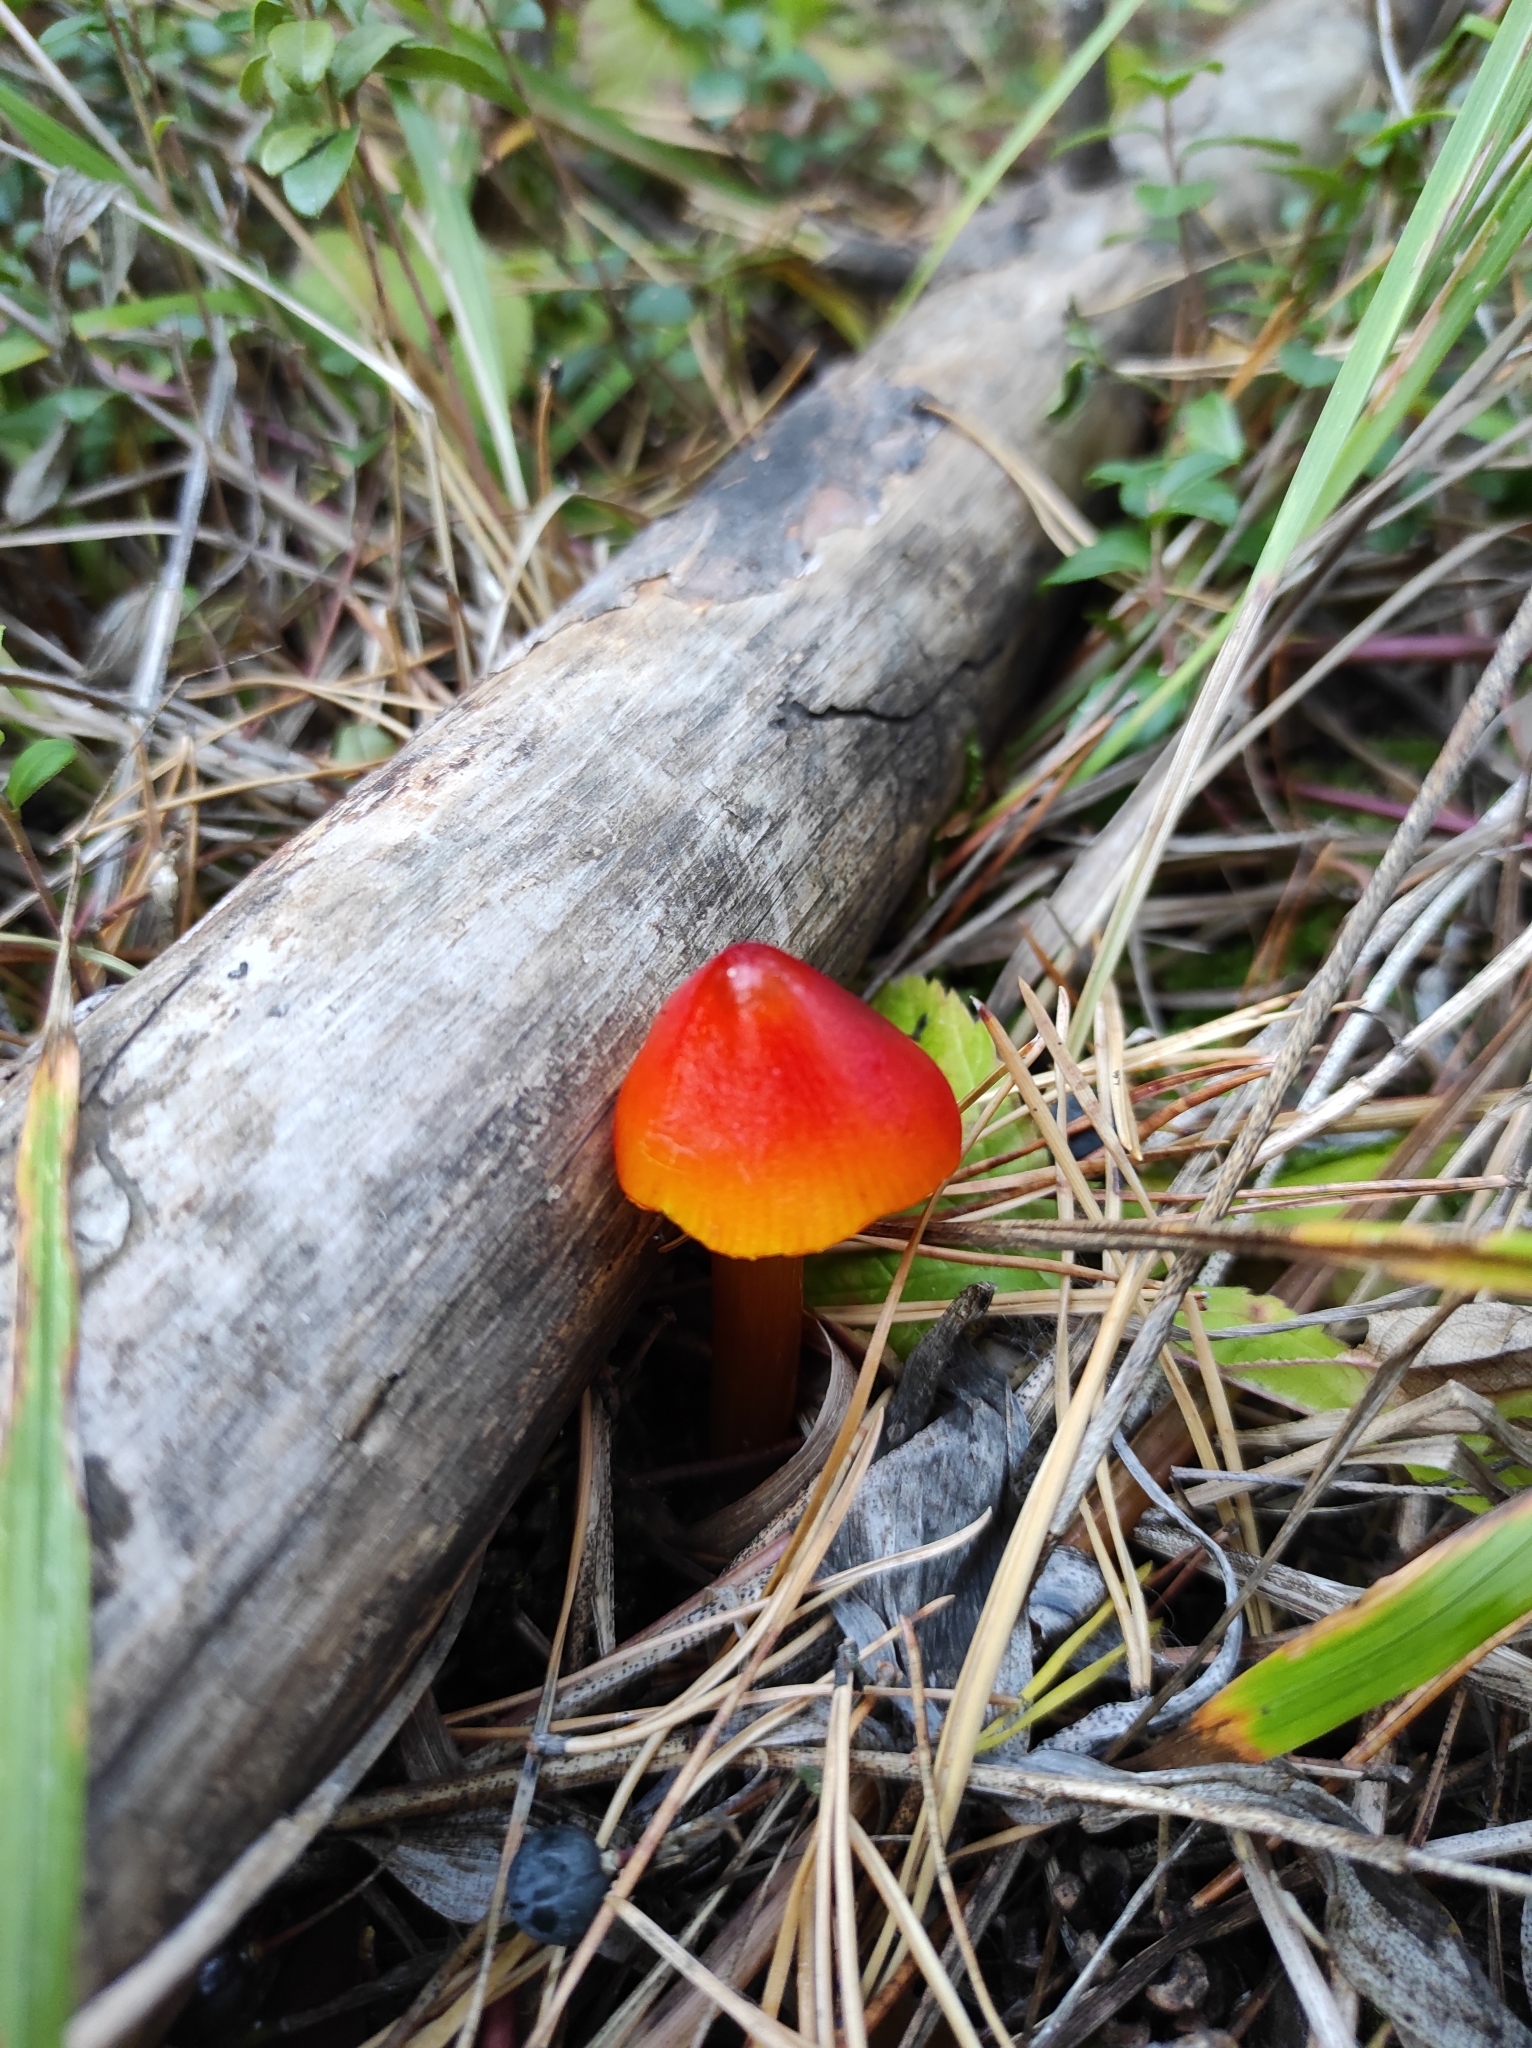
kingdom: Fungi
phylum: Basidiomycota
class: Agaricomycetes
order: Agaricales
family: Hygrophoraceae
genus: Hygrocybe
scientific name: Hygrocybe conica
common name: Blackening wax-cap
